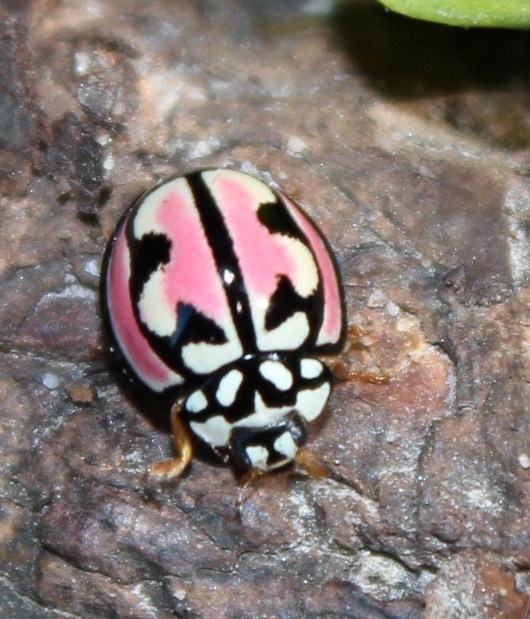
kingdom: Animalia
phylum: Arthropoda
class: Insecta
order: Coleoptera
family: Coccinellidae
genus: Cheilomenes
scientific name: Cheilomenes
